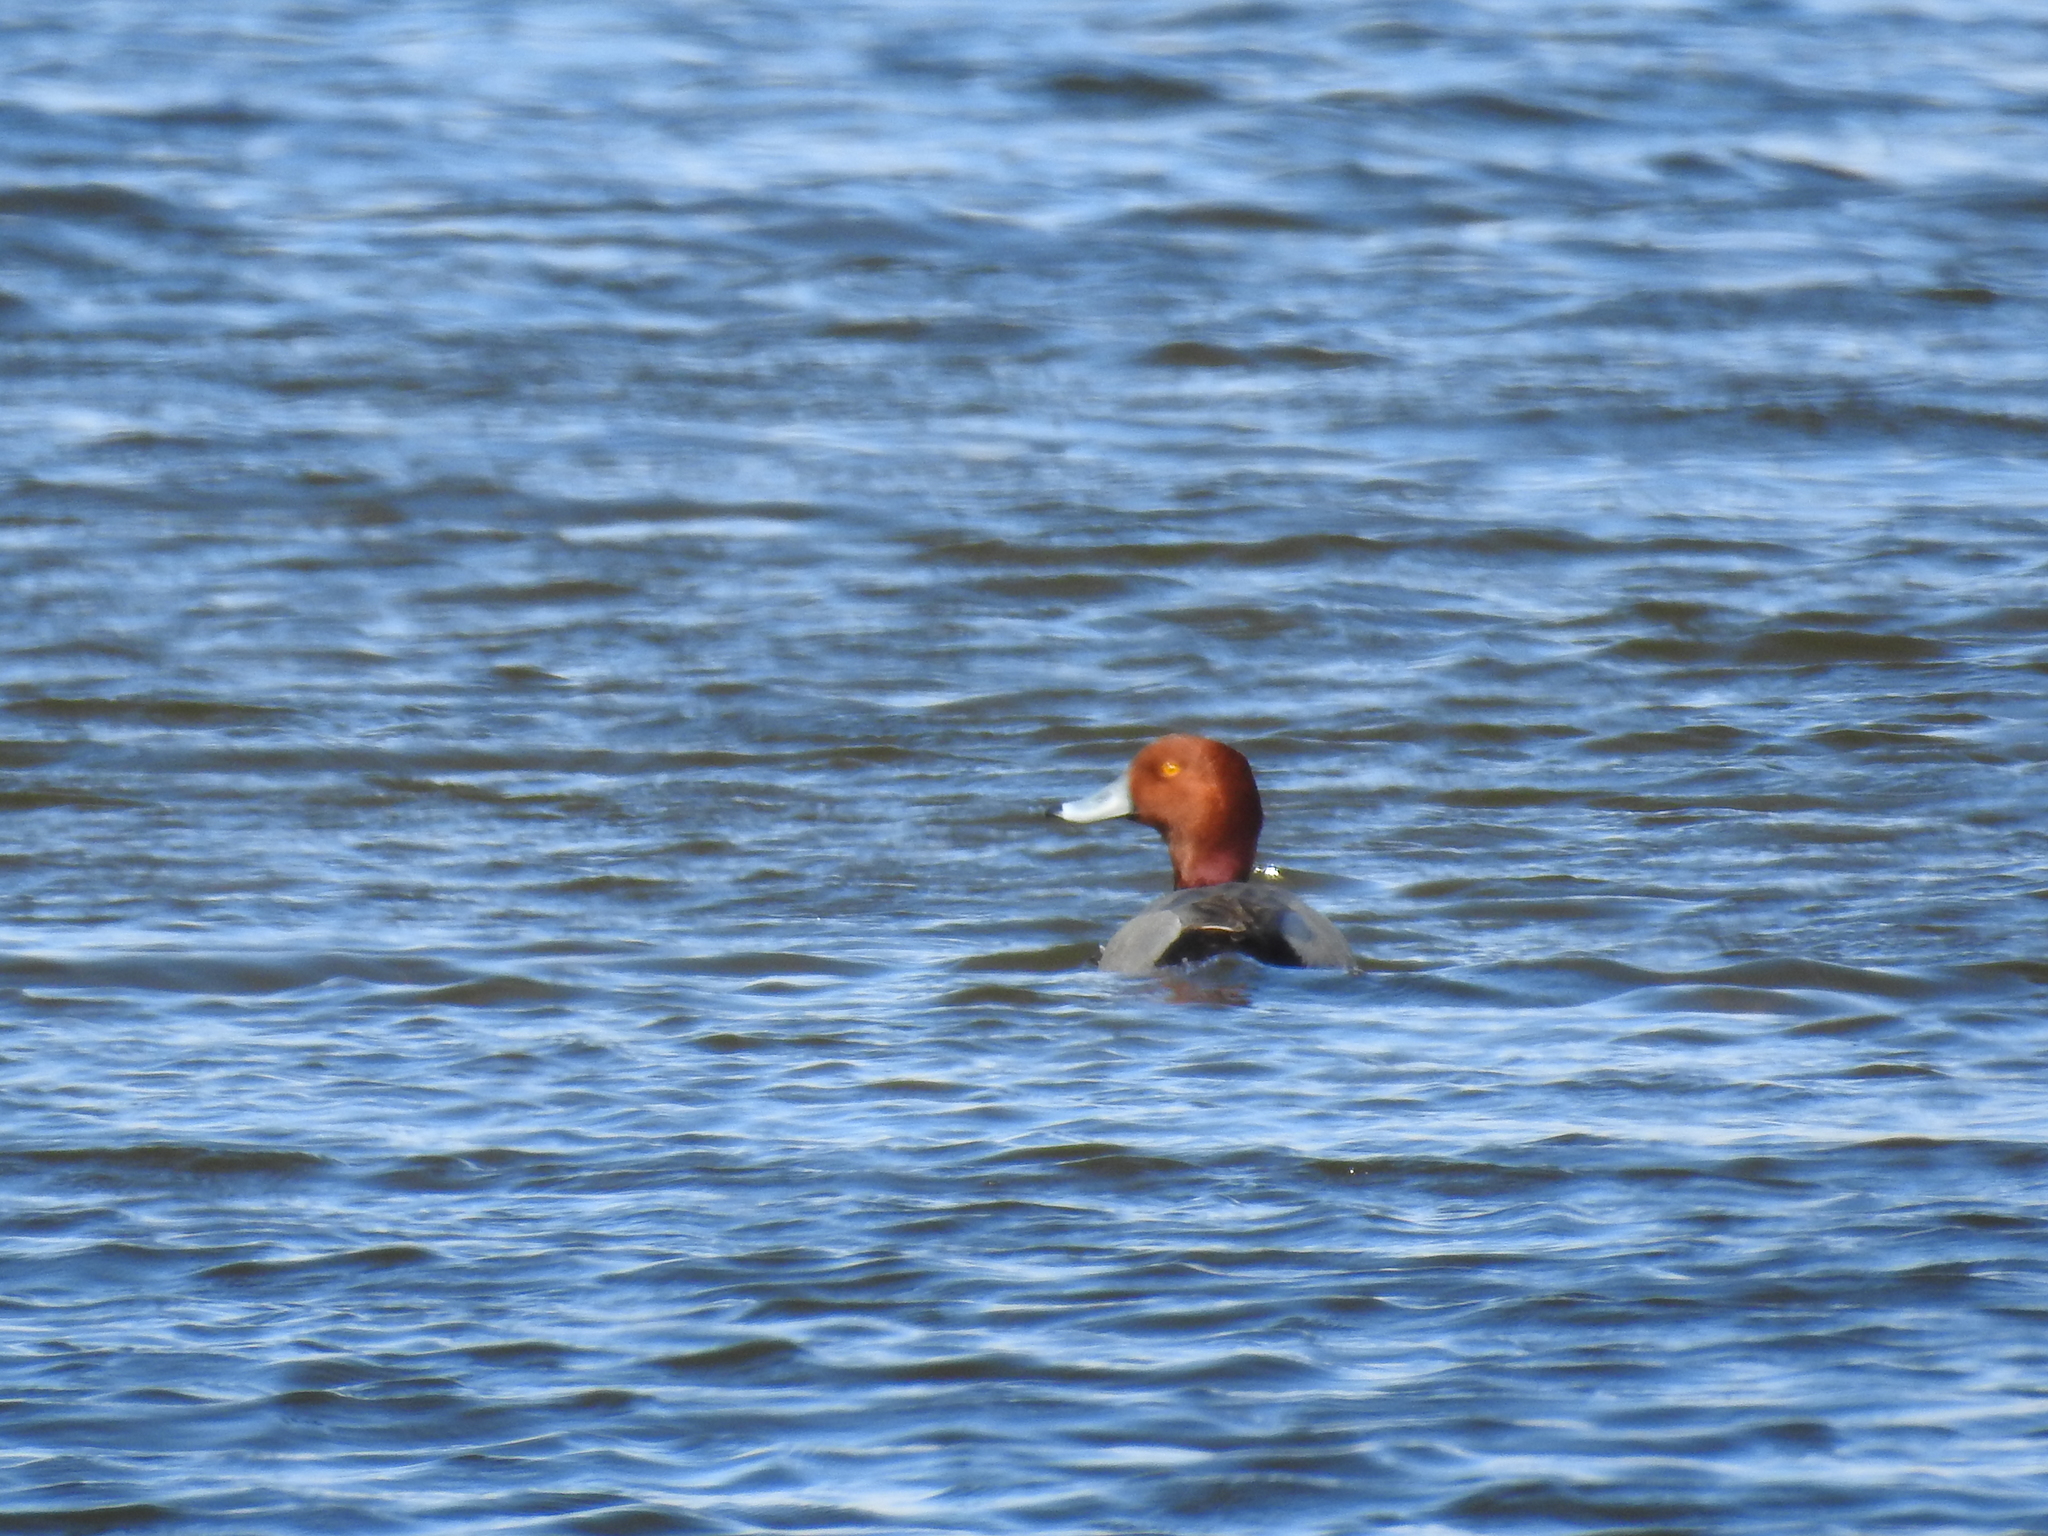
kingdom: Animalia
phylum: Chordata
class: Aves
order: Anseriformes
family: Anatidae
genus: Aythya
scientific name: Aythya americana
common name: Redhead
